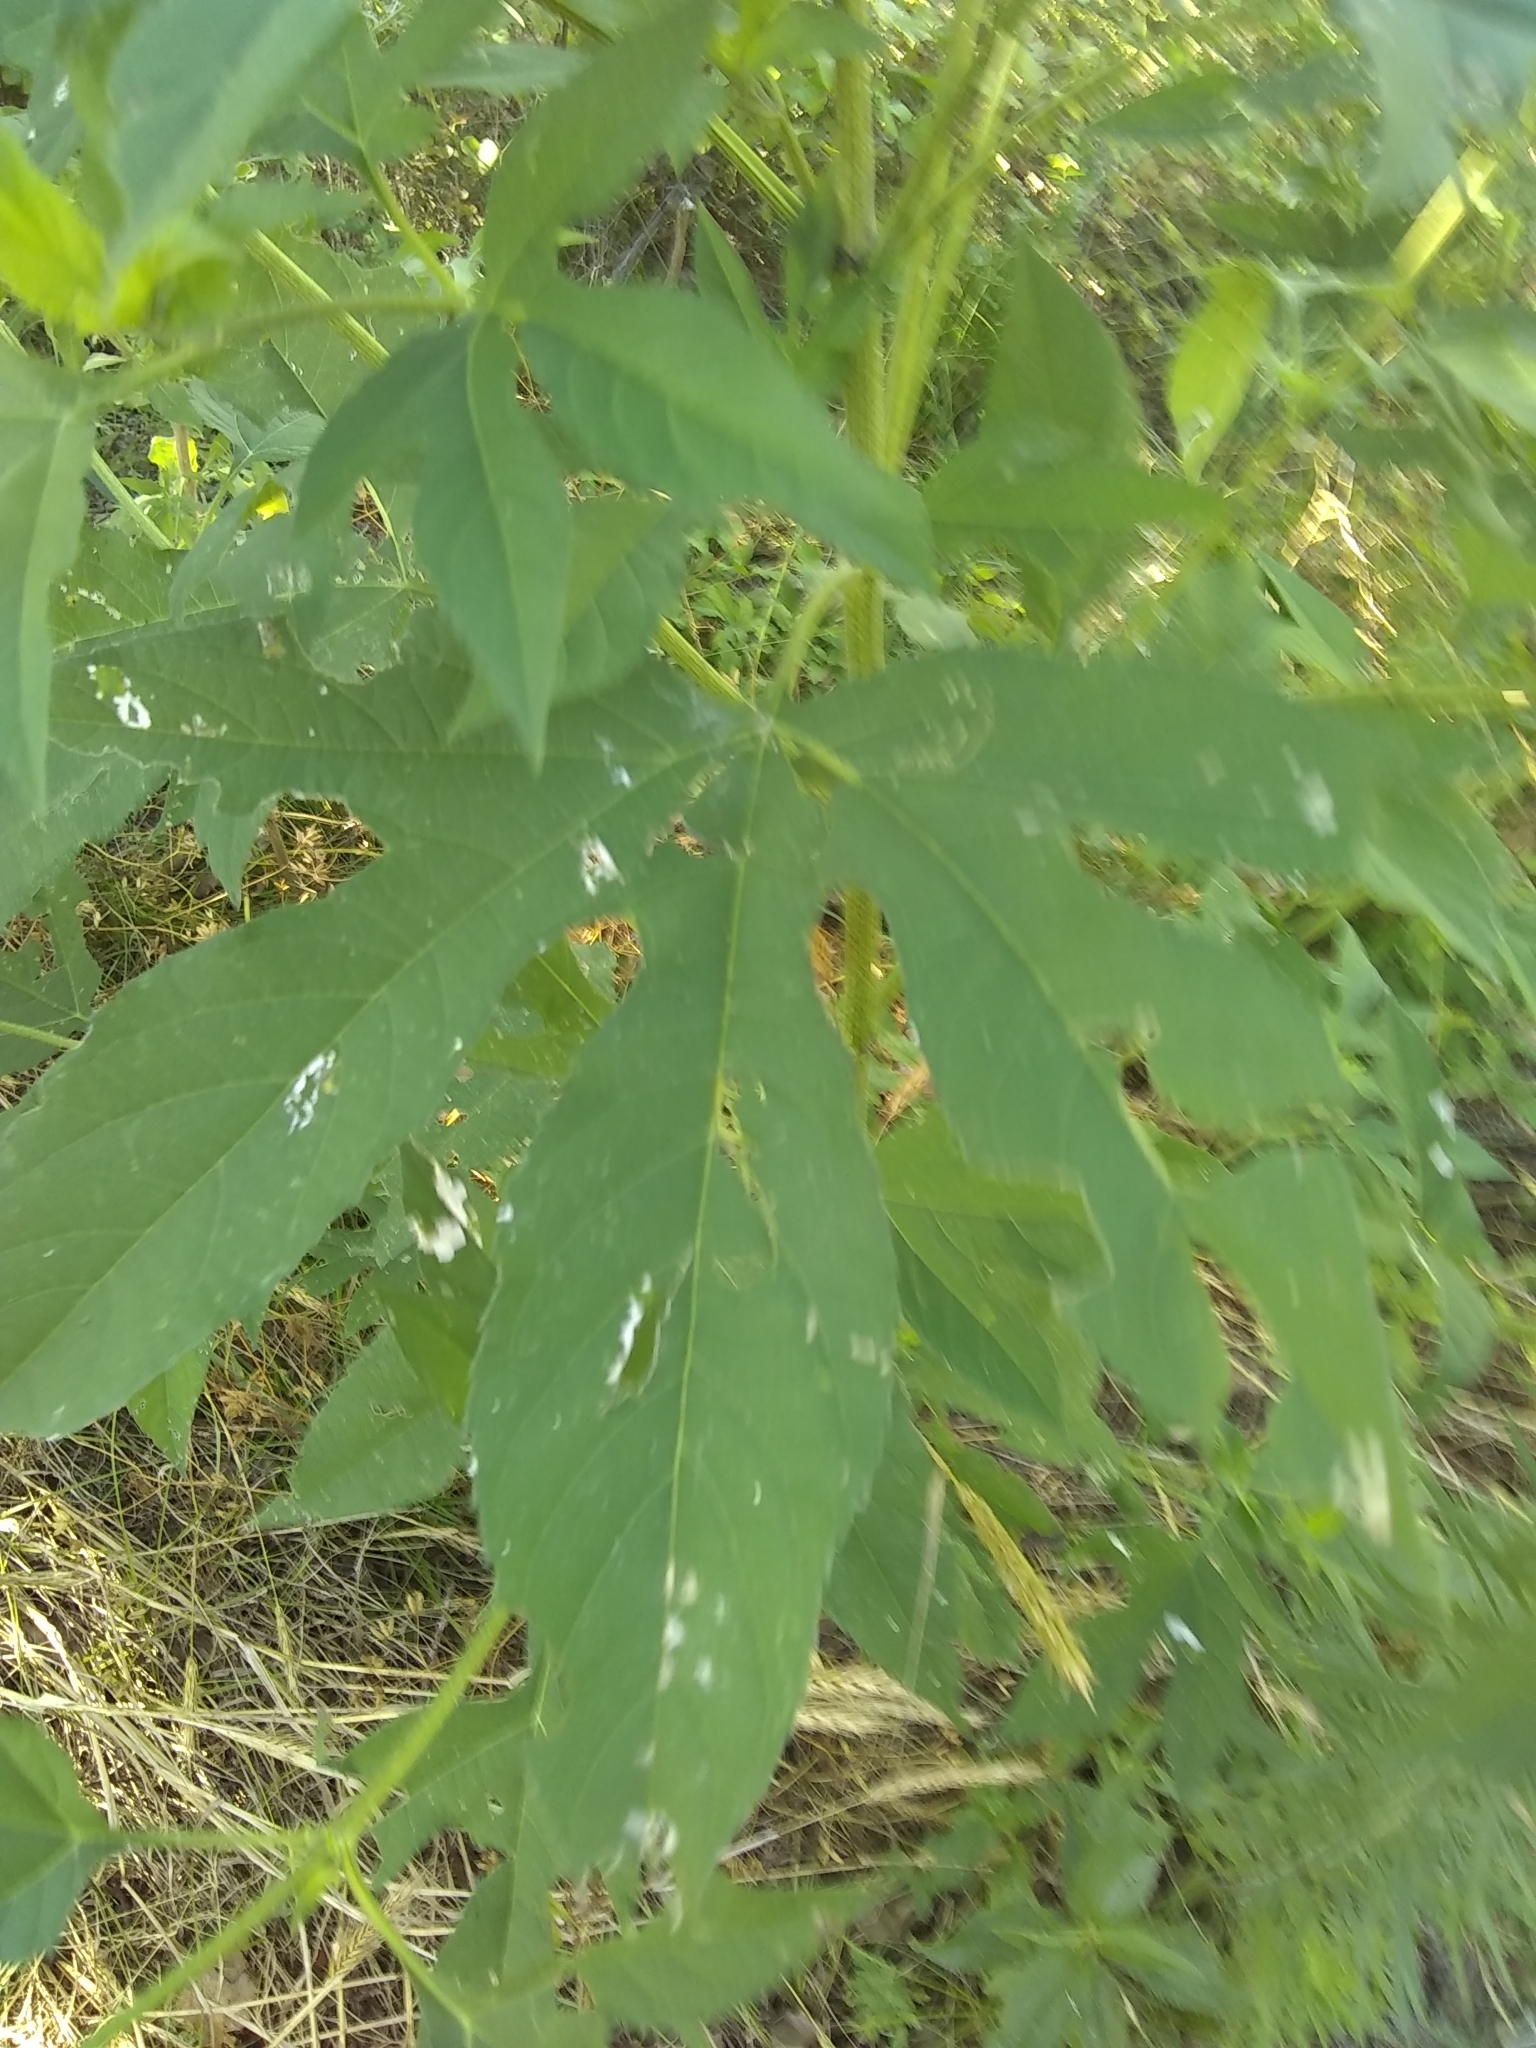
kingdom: Plantae
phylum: Tracheophyta
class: Magnoliopsida
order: Asterales
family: Asteraceae
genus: Ambrosia
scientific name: Ambrosia trifida
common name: Giant ragweed
